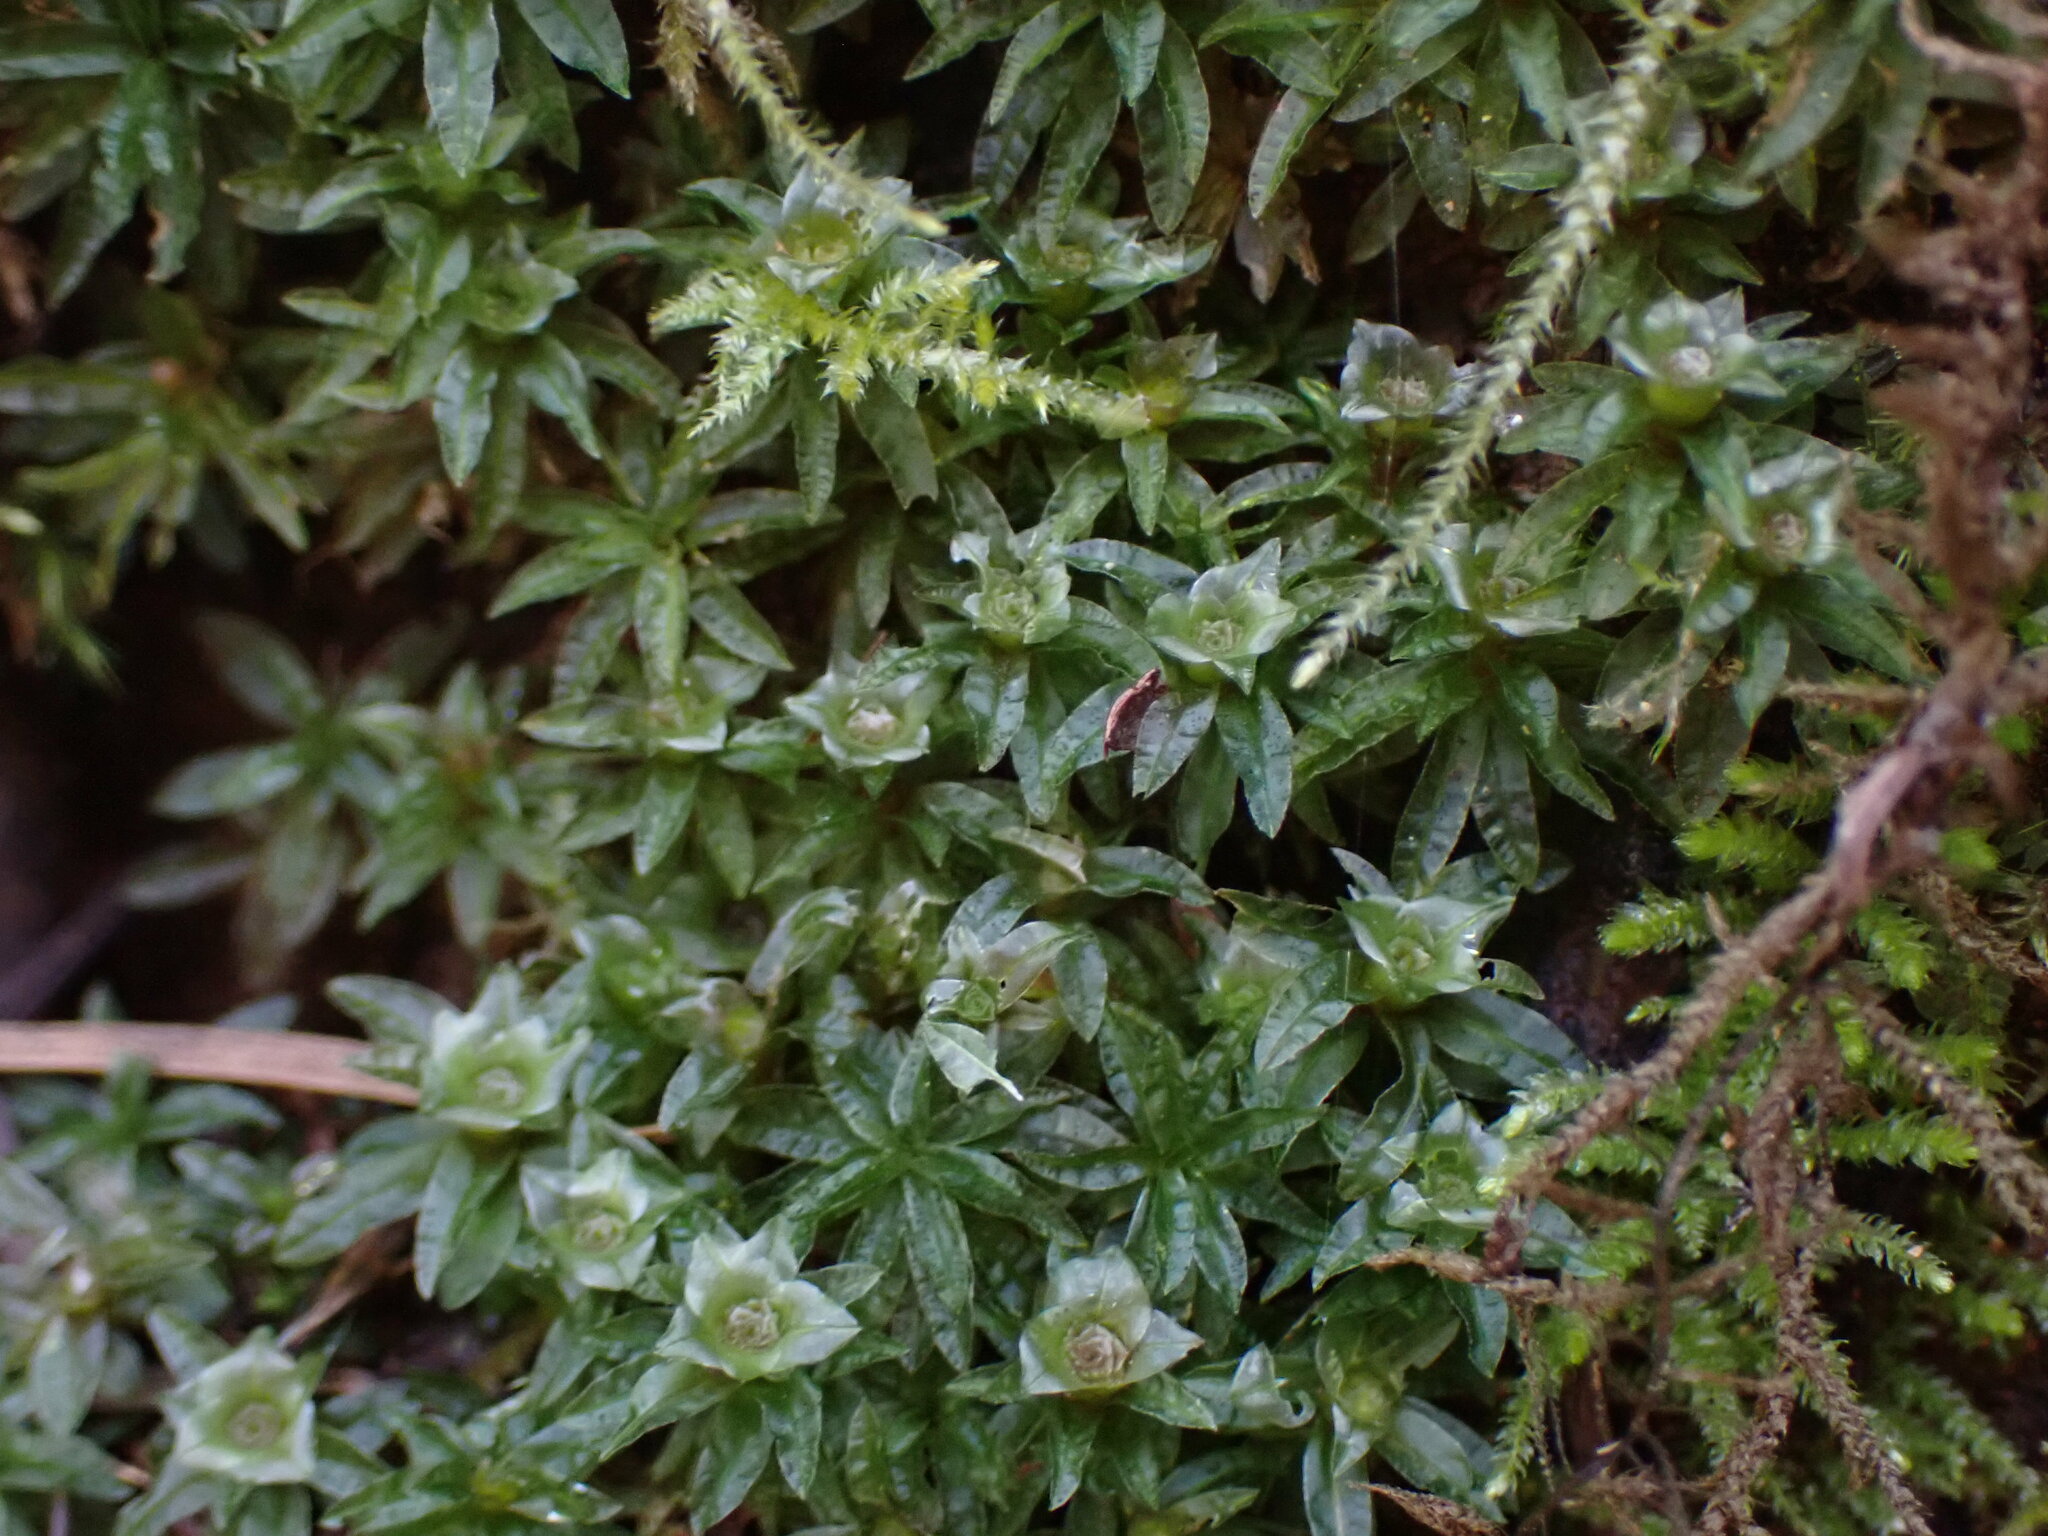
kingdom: Plantae
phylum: Bryophyta
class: Polytrichopsida
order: Polytrichales
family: Polytrichaceae
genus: Atrichum
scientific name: Atrichum selwynii
